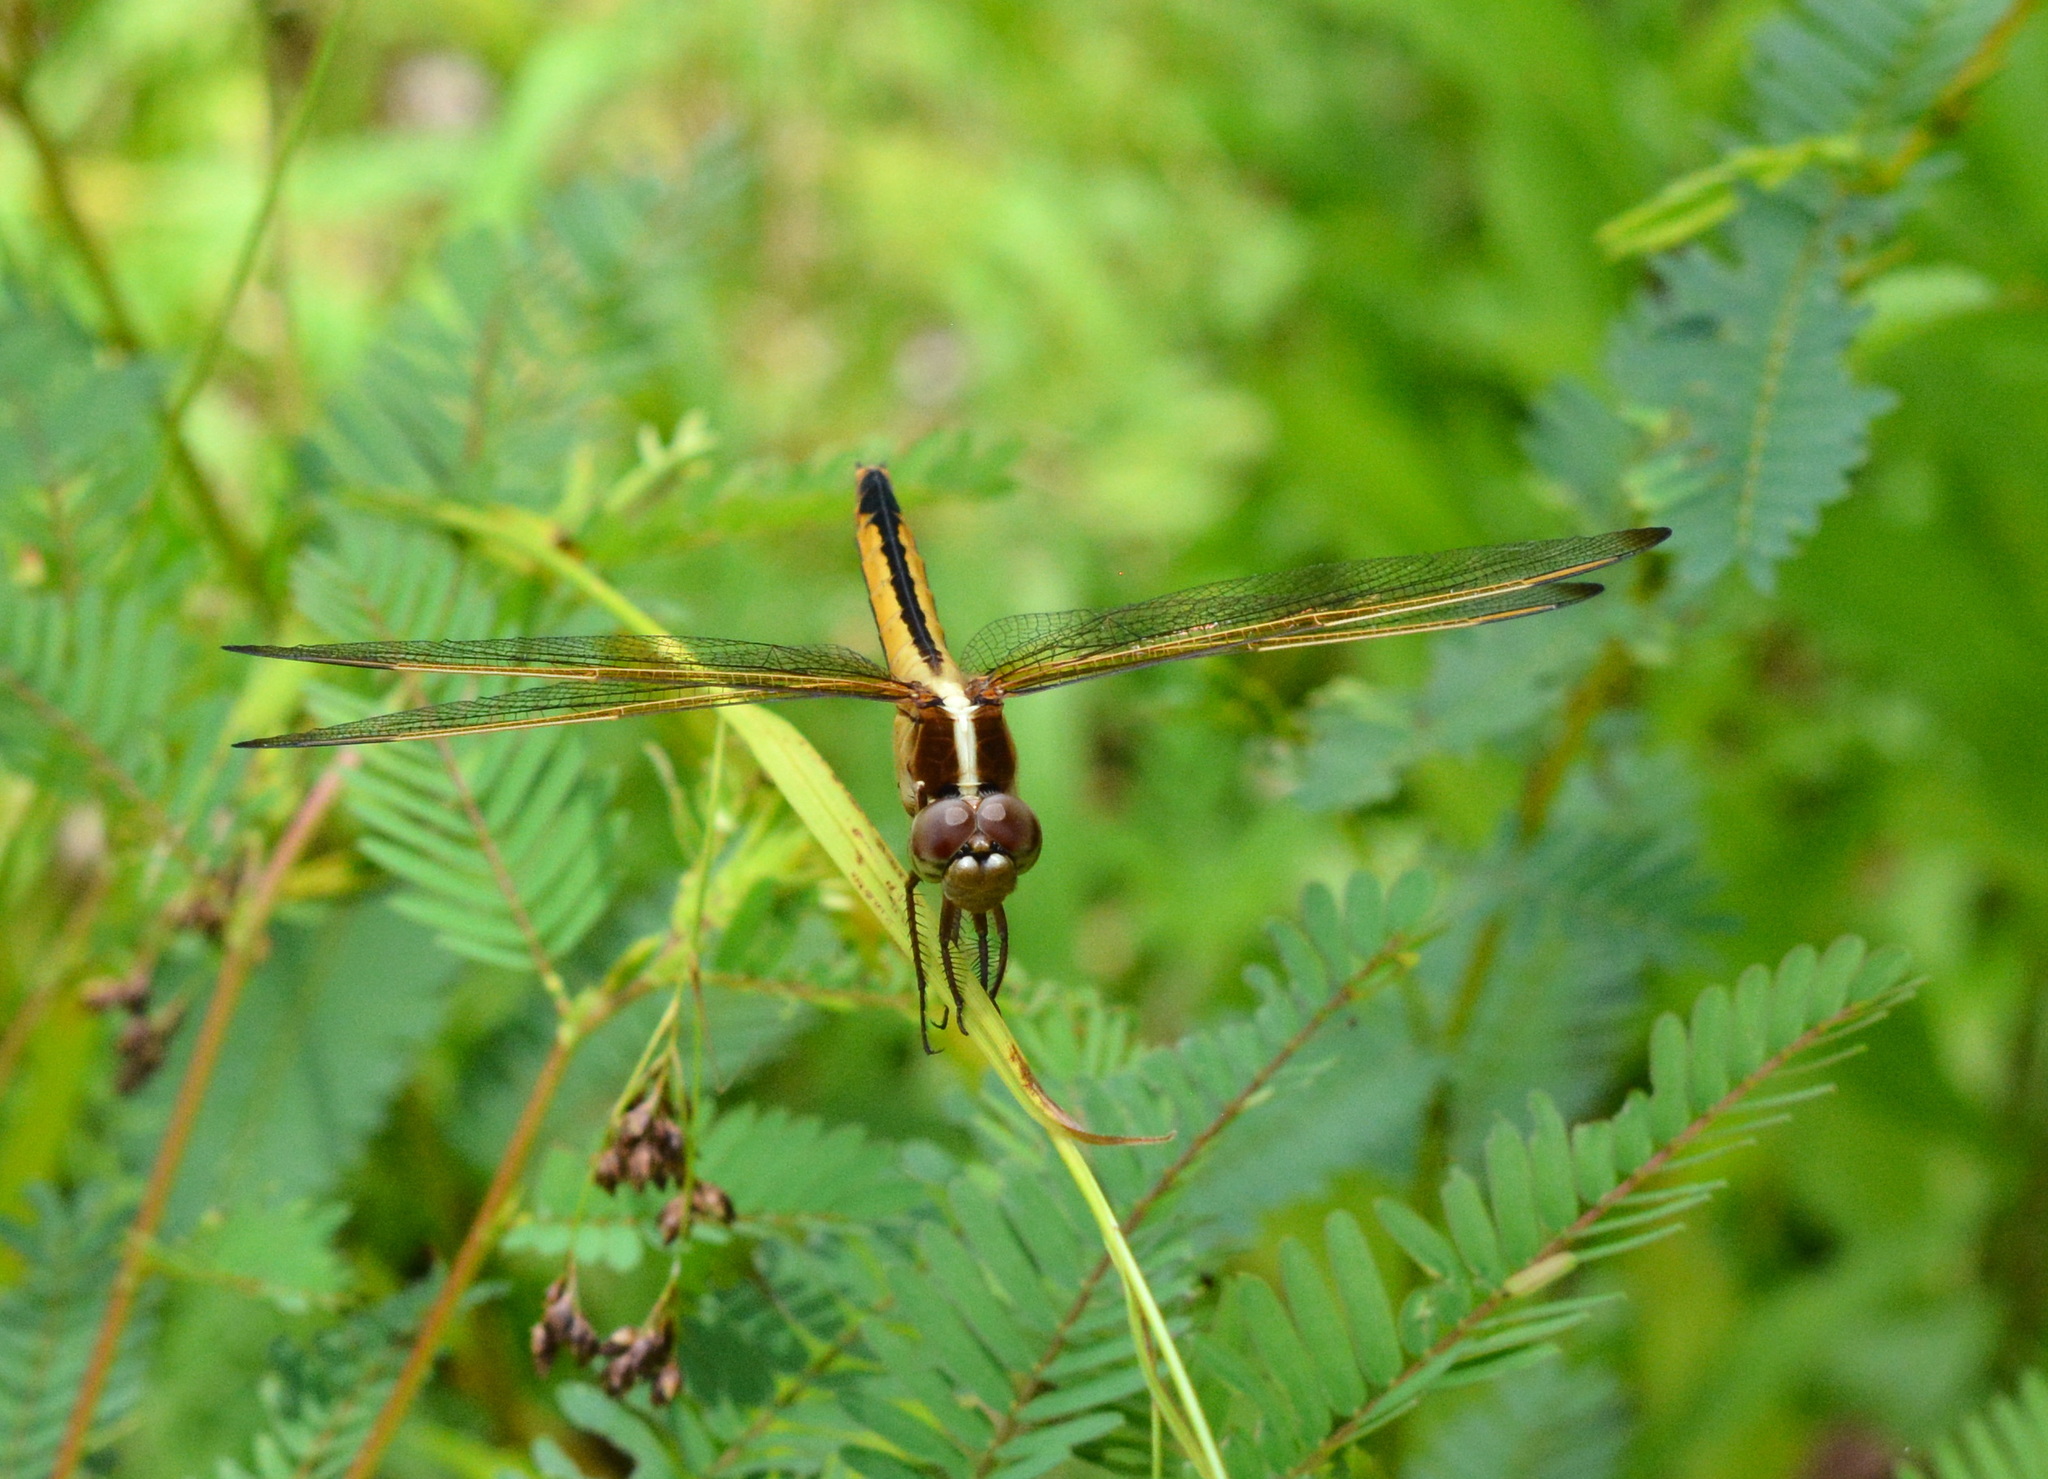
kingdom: Animalia
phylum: Arthropoda
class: Insecta
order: Odonata
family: Libellulidae
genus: Libellula
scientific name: Libellula needhami
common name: Needham's skimmer
